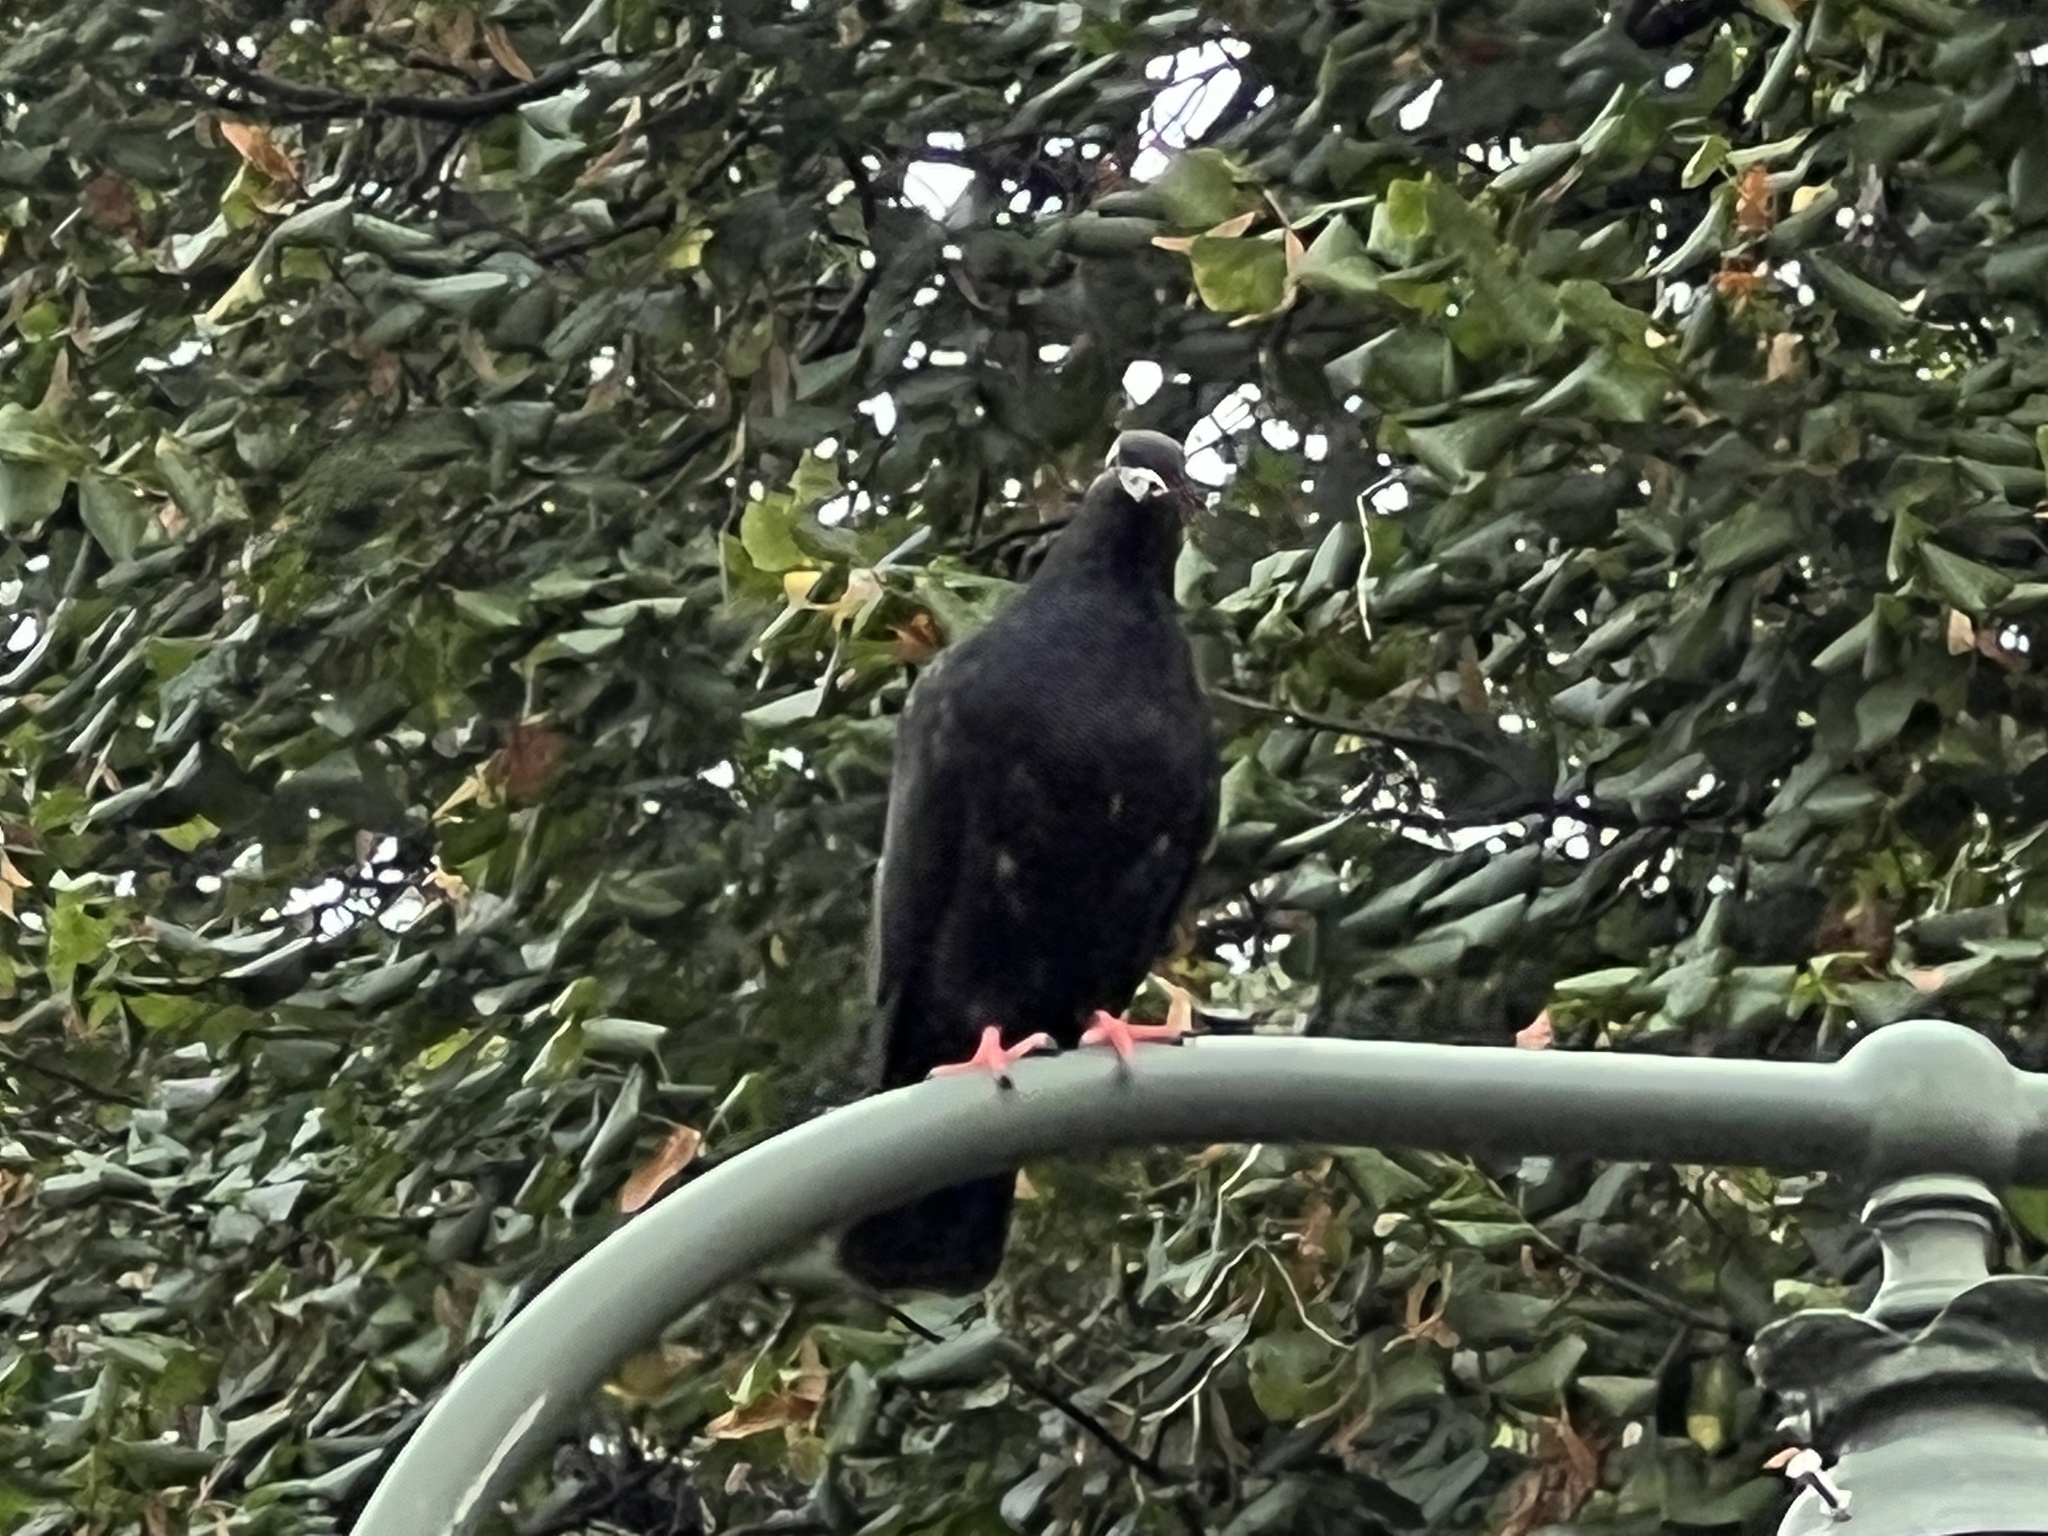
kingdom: Animalia
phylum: Chordata
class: Aves
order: Columbiformes
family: Columbidae
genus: Columba
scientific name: Columba livia
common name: Rock pigeon
